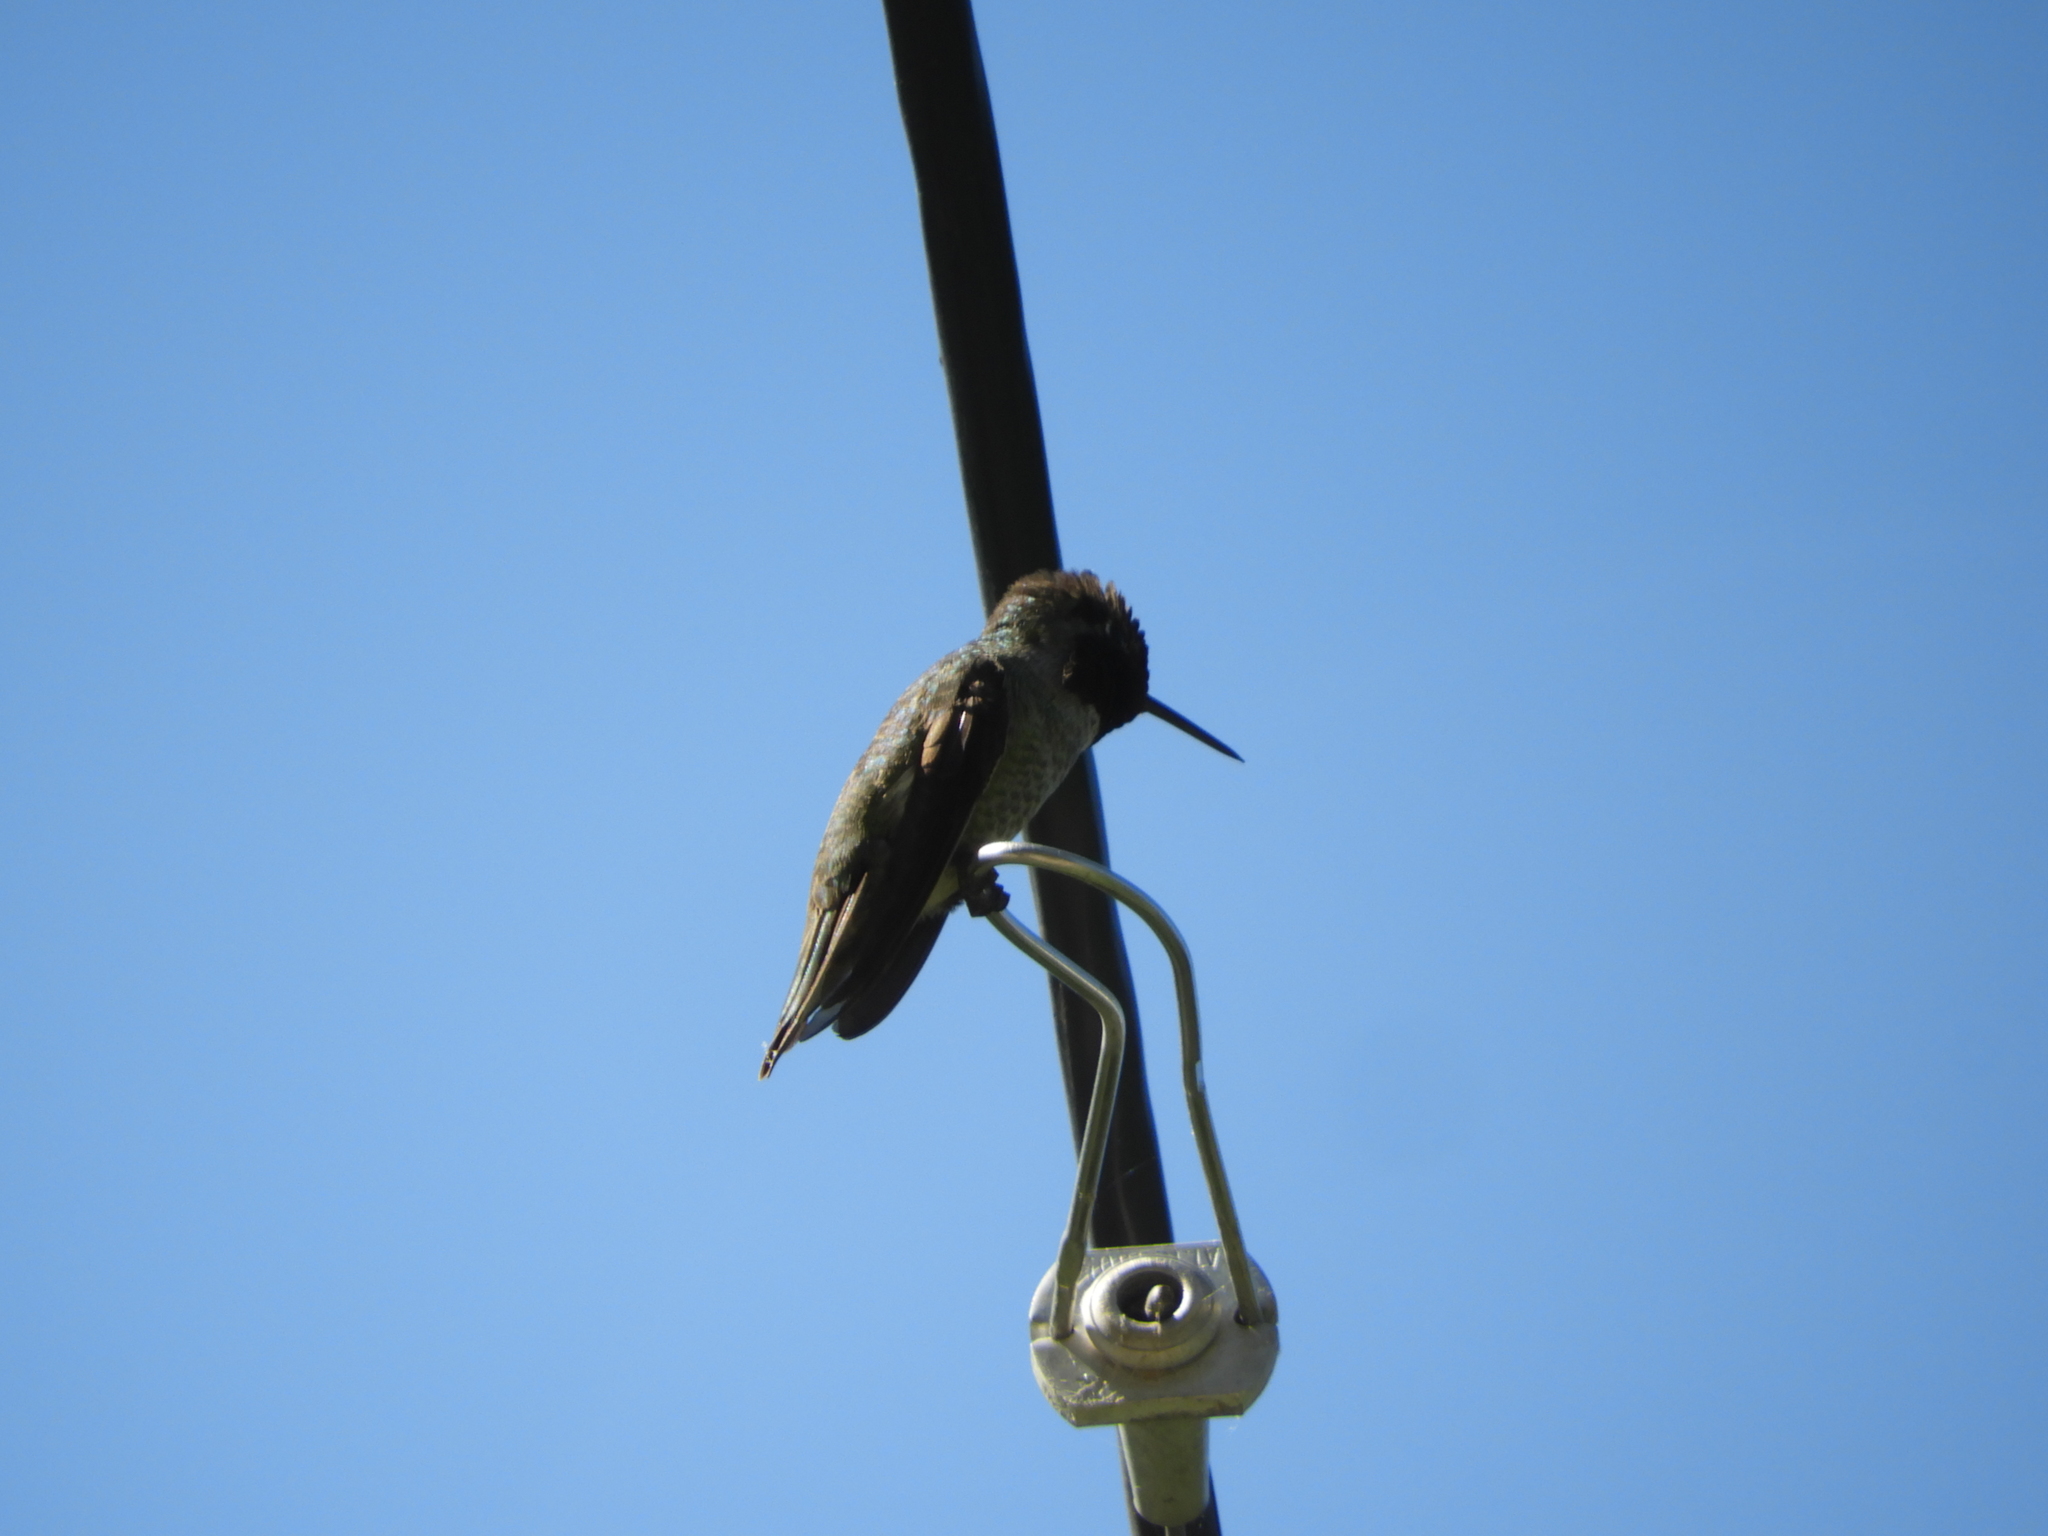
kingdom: Animalia
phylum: Chordata
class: Aves
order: Apodiformes
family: Trochilidae
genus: Calypte
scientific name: Calypte anna
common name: Anna's hummingbird
